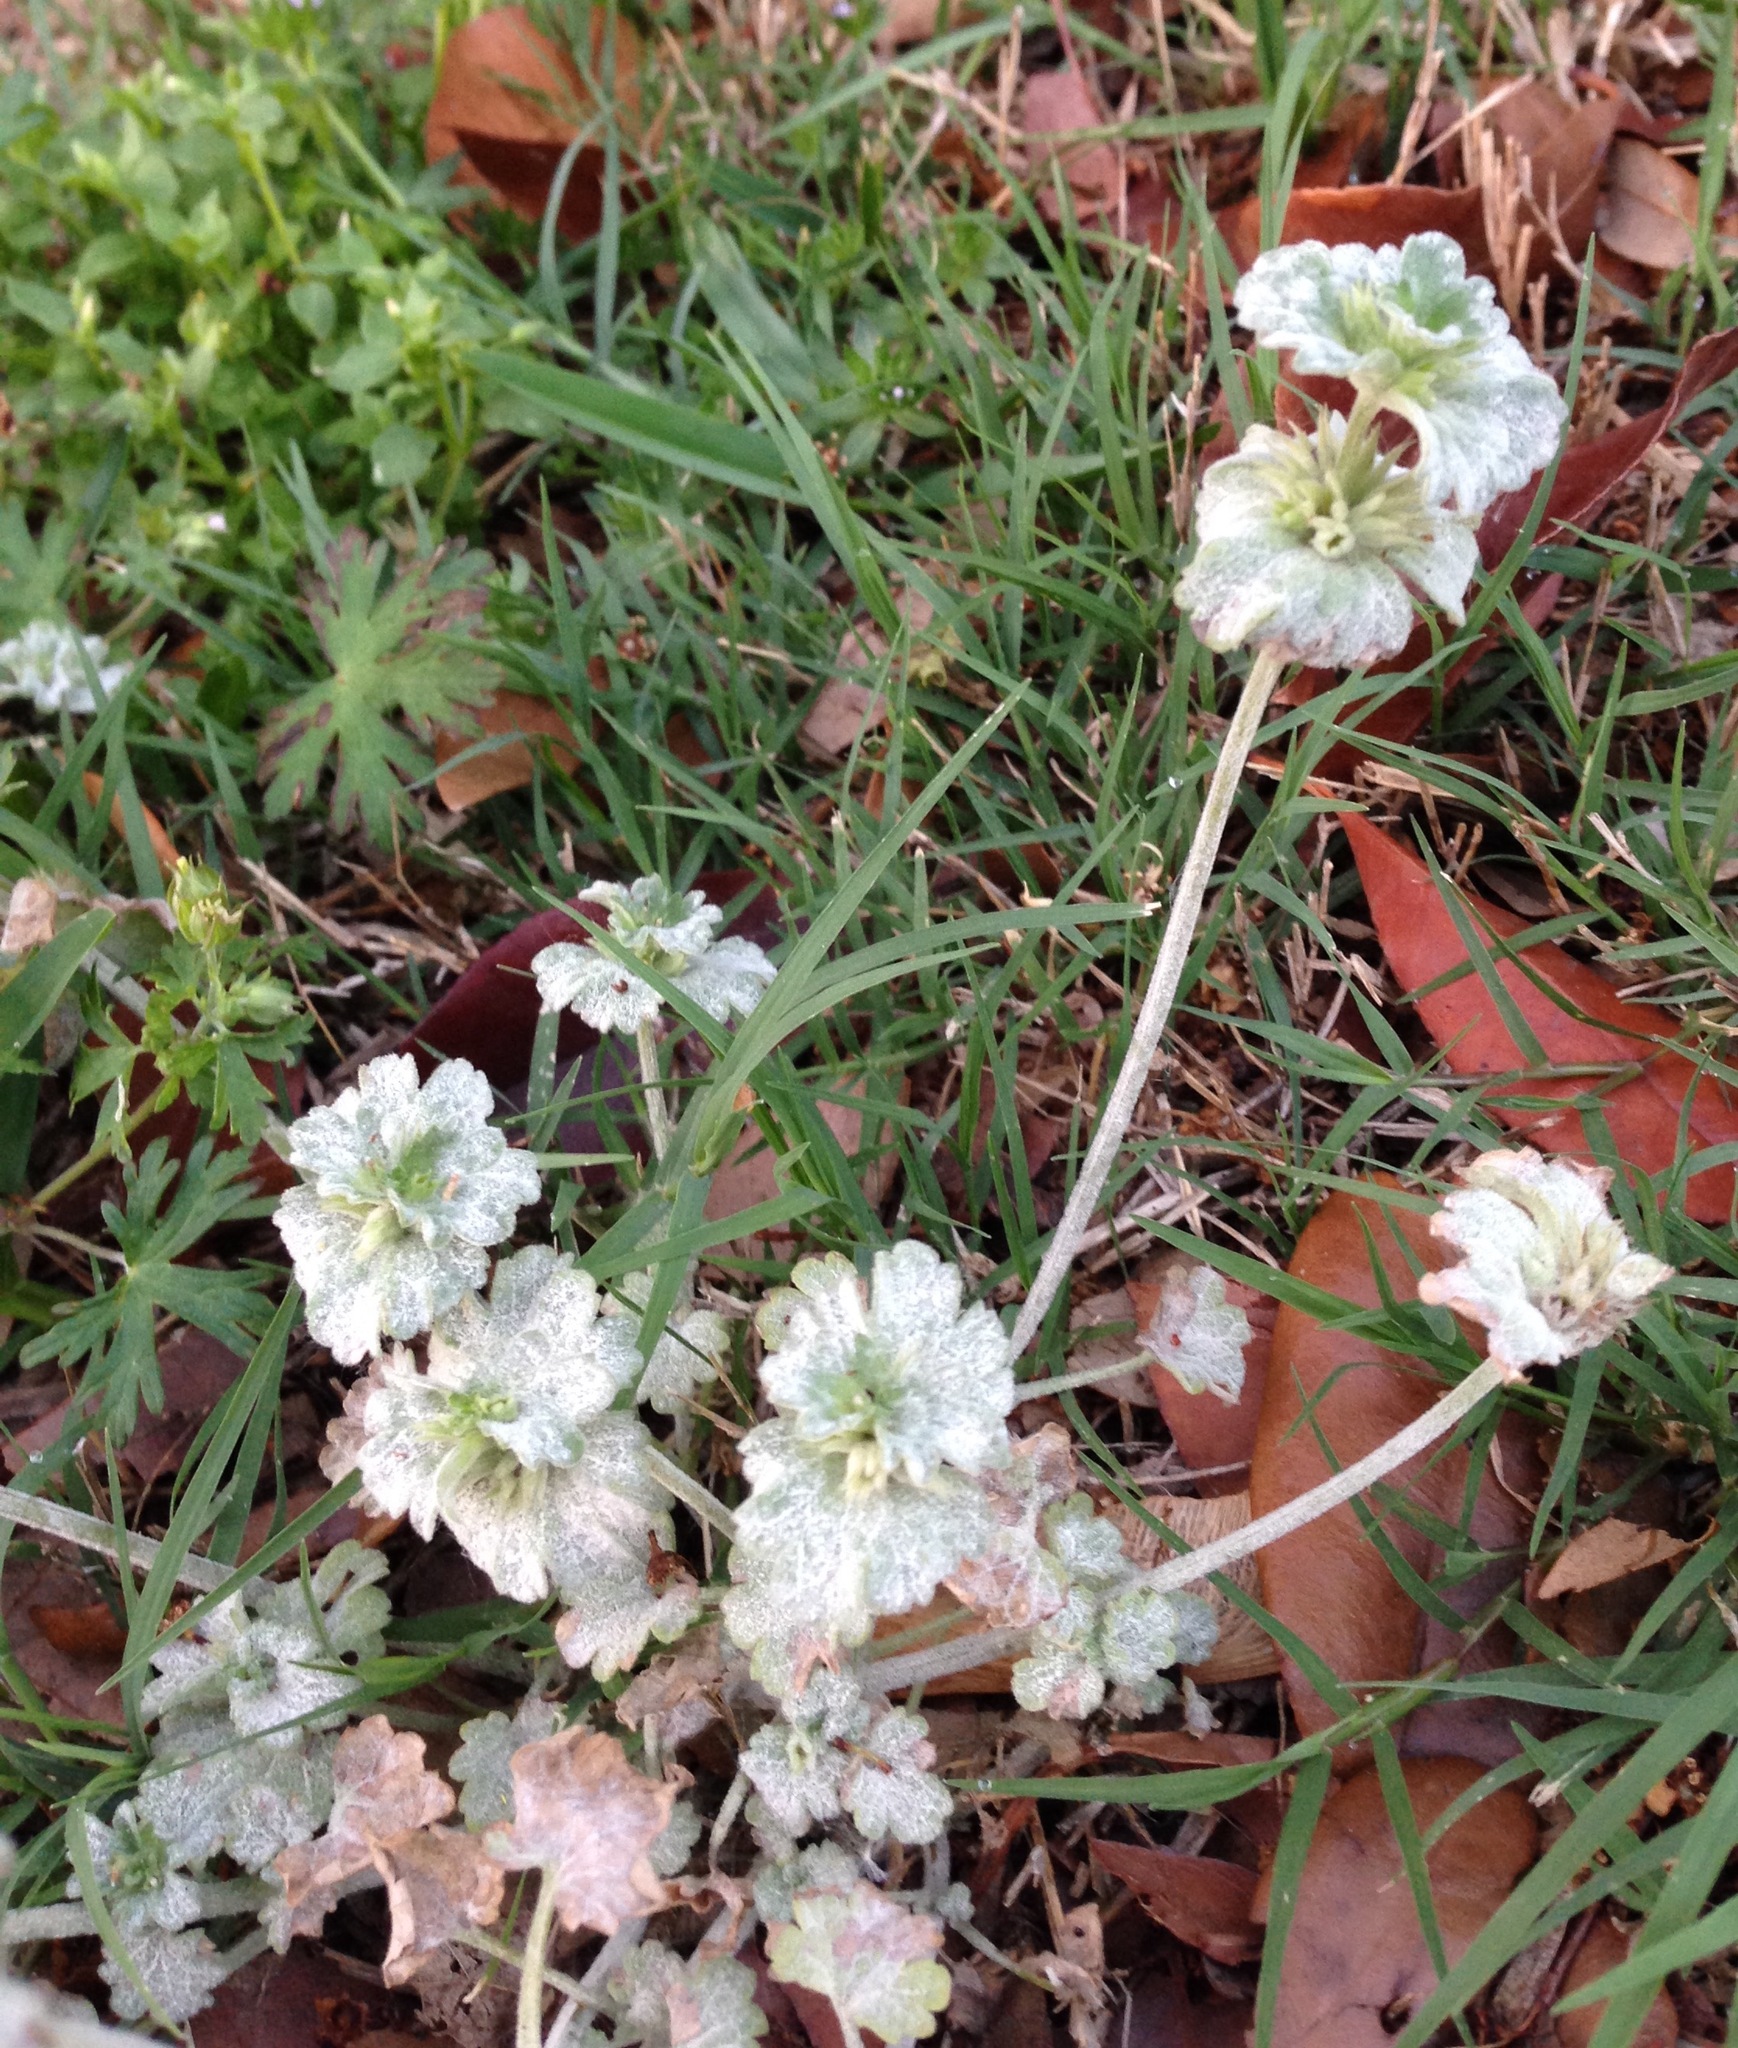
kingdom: Plantae
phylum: Tracheophyta
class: Magnoliopsida
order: Lamiales
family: Lamiaceae
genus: Lamium
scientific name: Lamium amplexicaule
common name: Henbit dead-nettle
